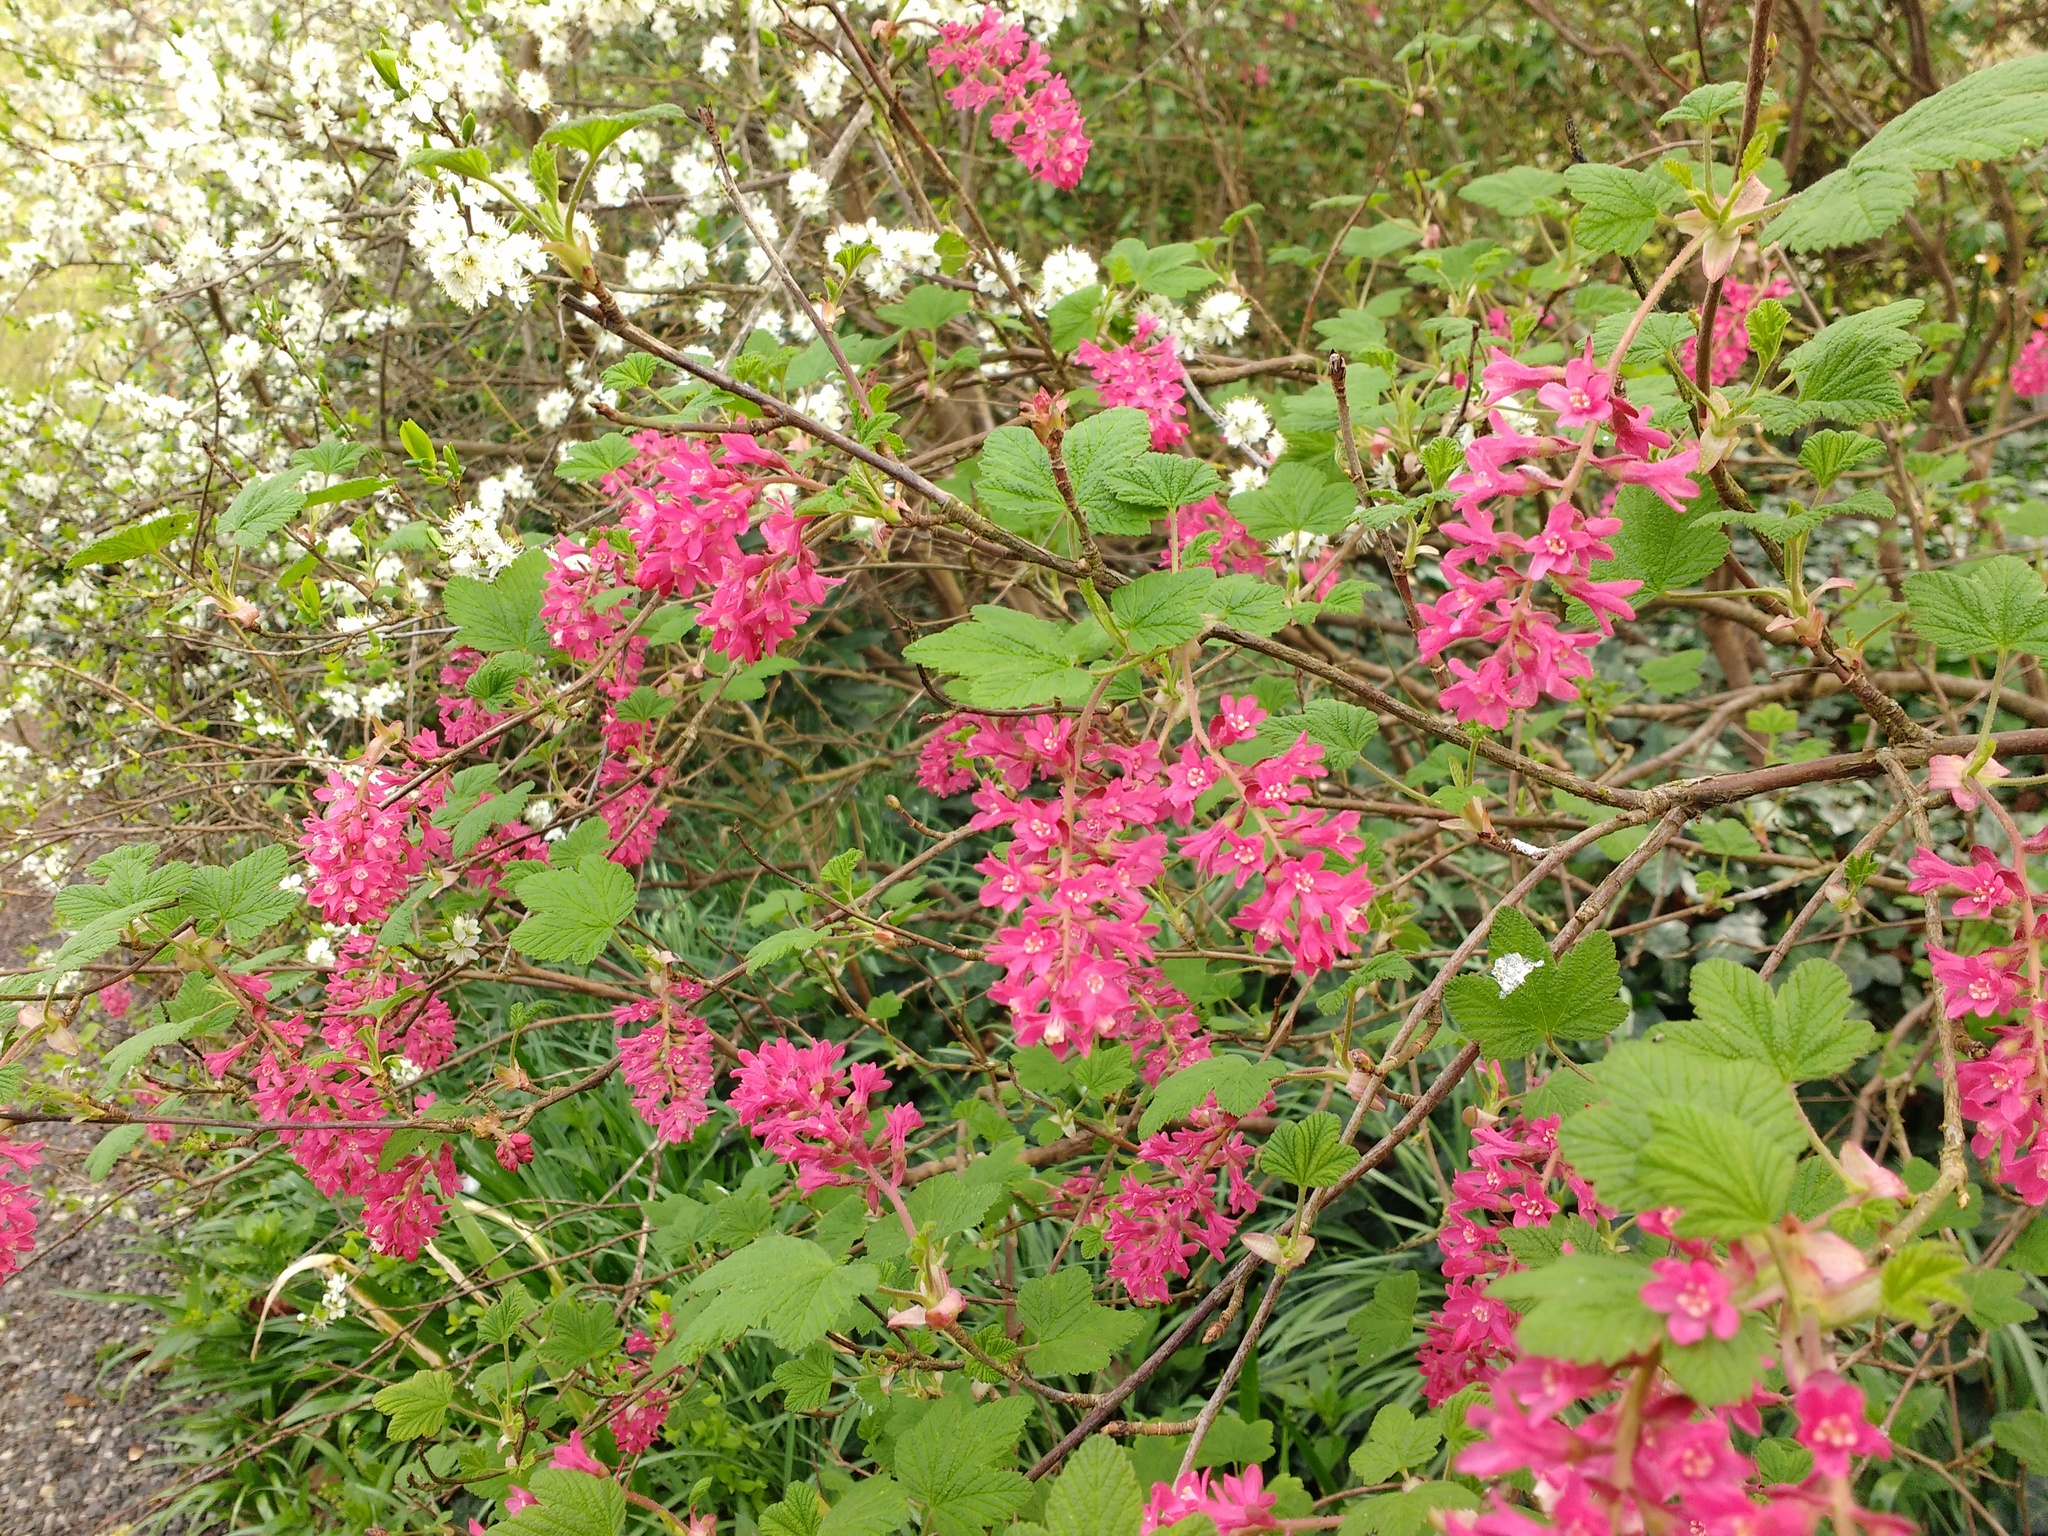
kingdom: Plantae
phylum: Tracheophyta
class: Magnoliopsida
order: Saxifragales
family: Grossulariaceae
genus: Ribes
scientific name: Ribes sanguineum
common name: Flowering currant
